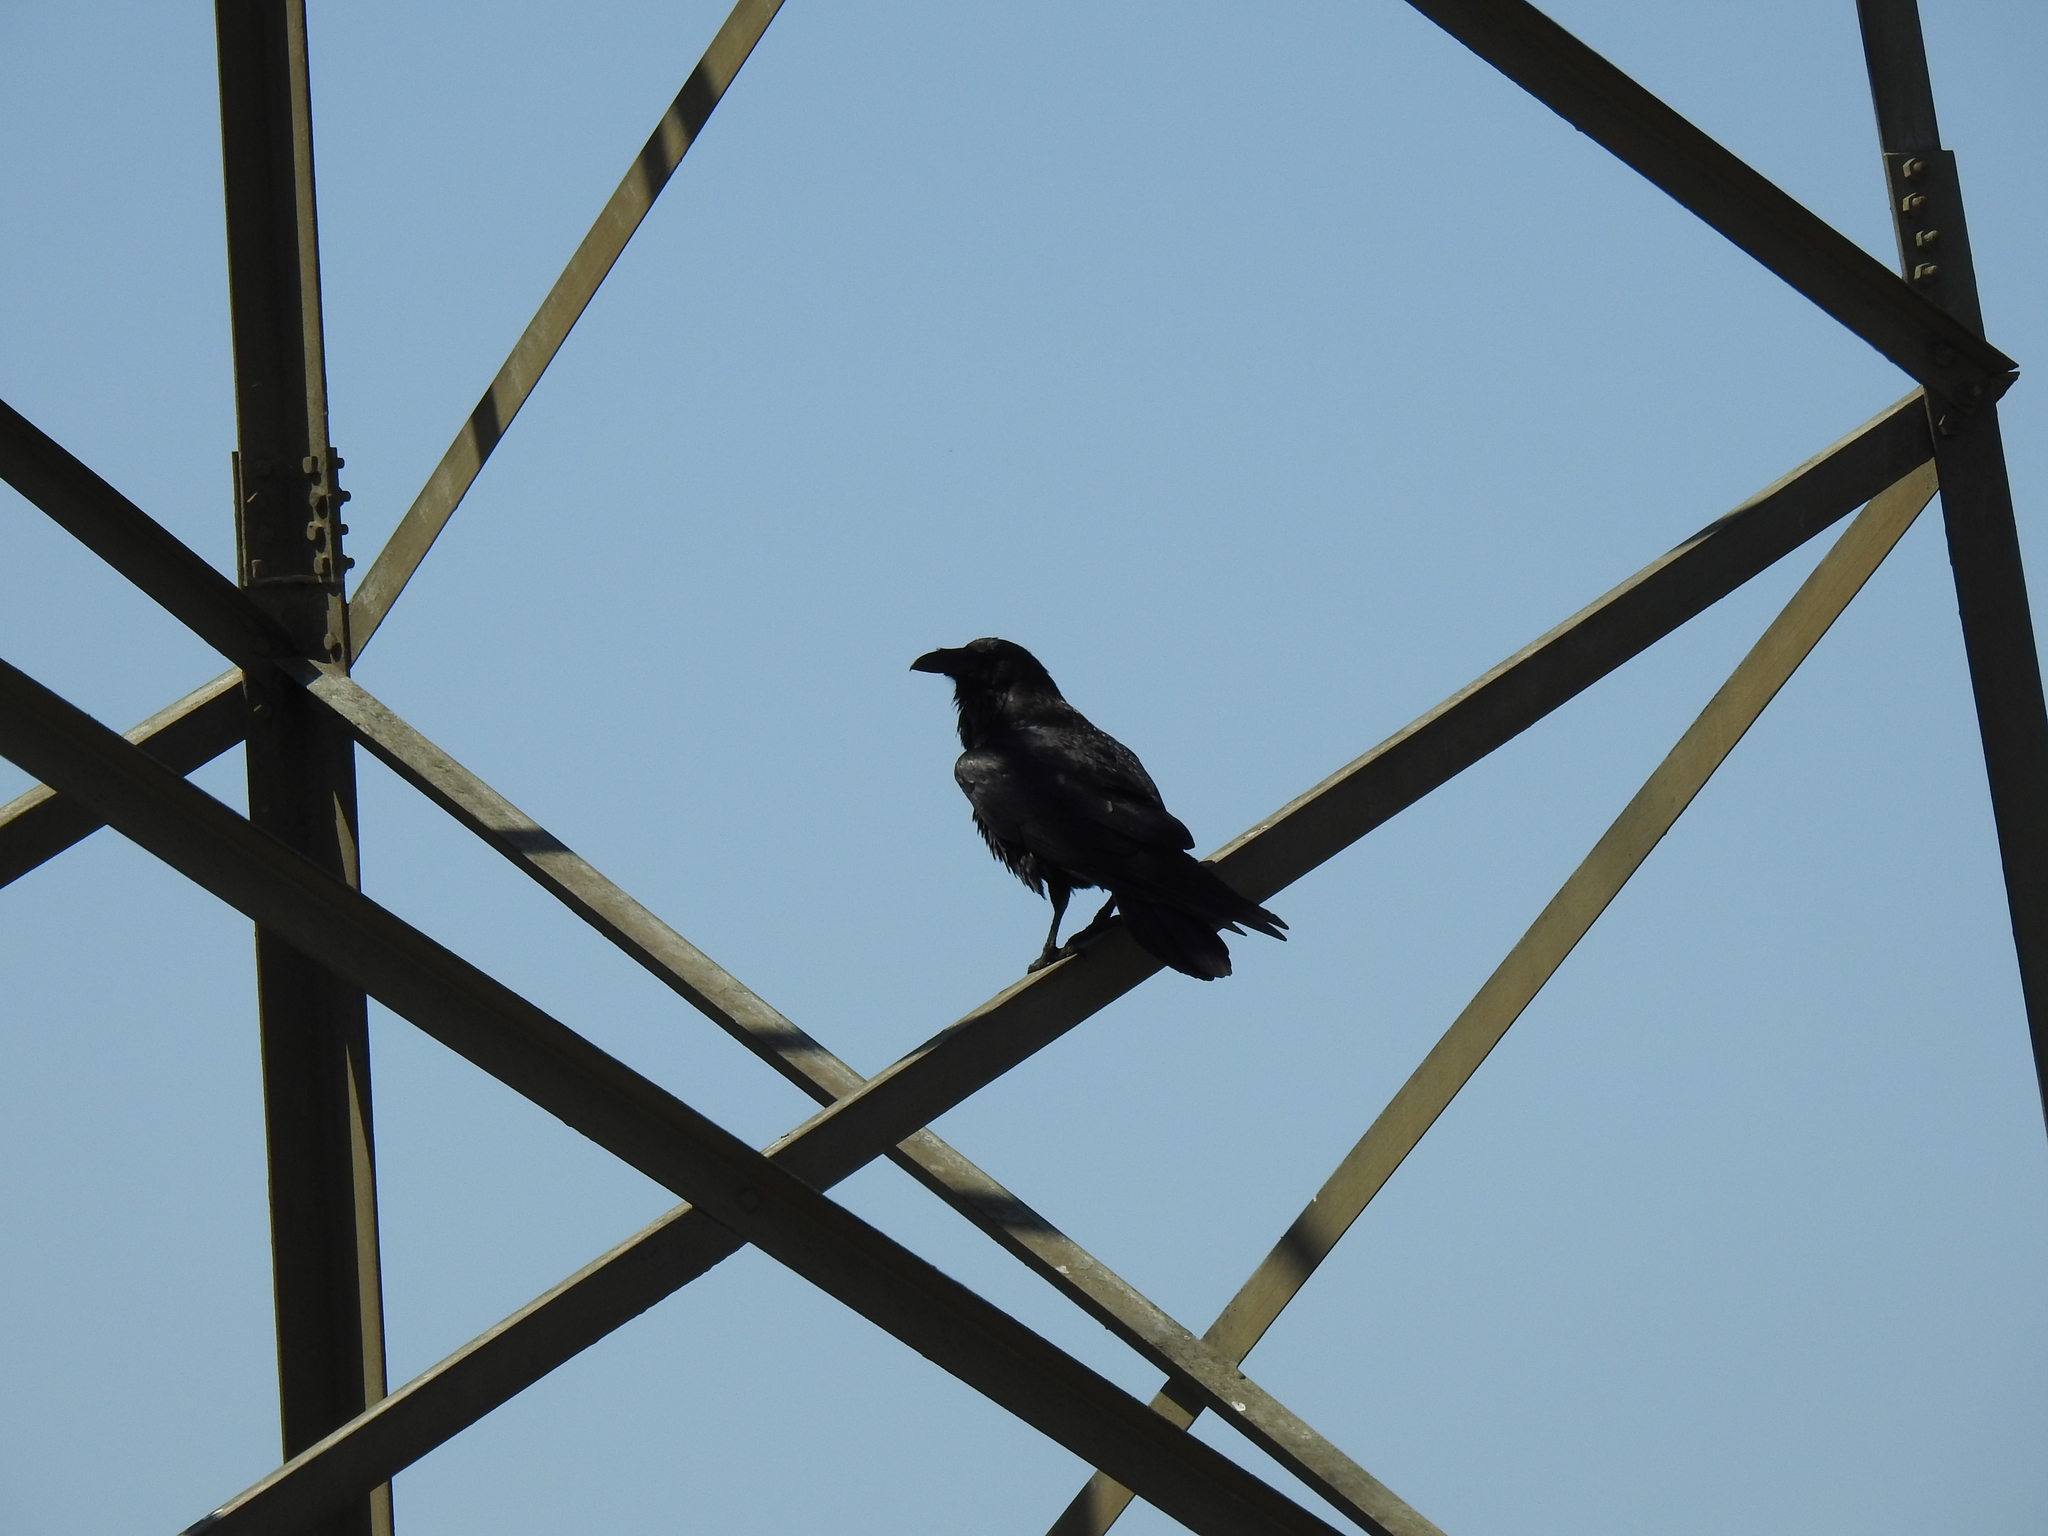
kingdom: Animalia
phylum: Chordata
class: Aves
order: Passeriformes
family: Corvidae
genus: Corvus
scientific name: Corvus corax
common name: Common raven
